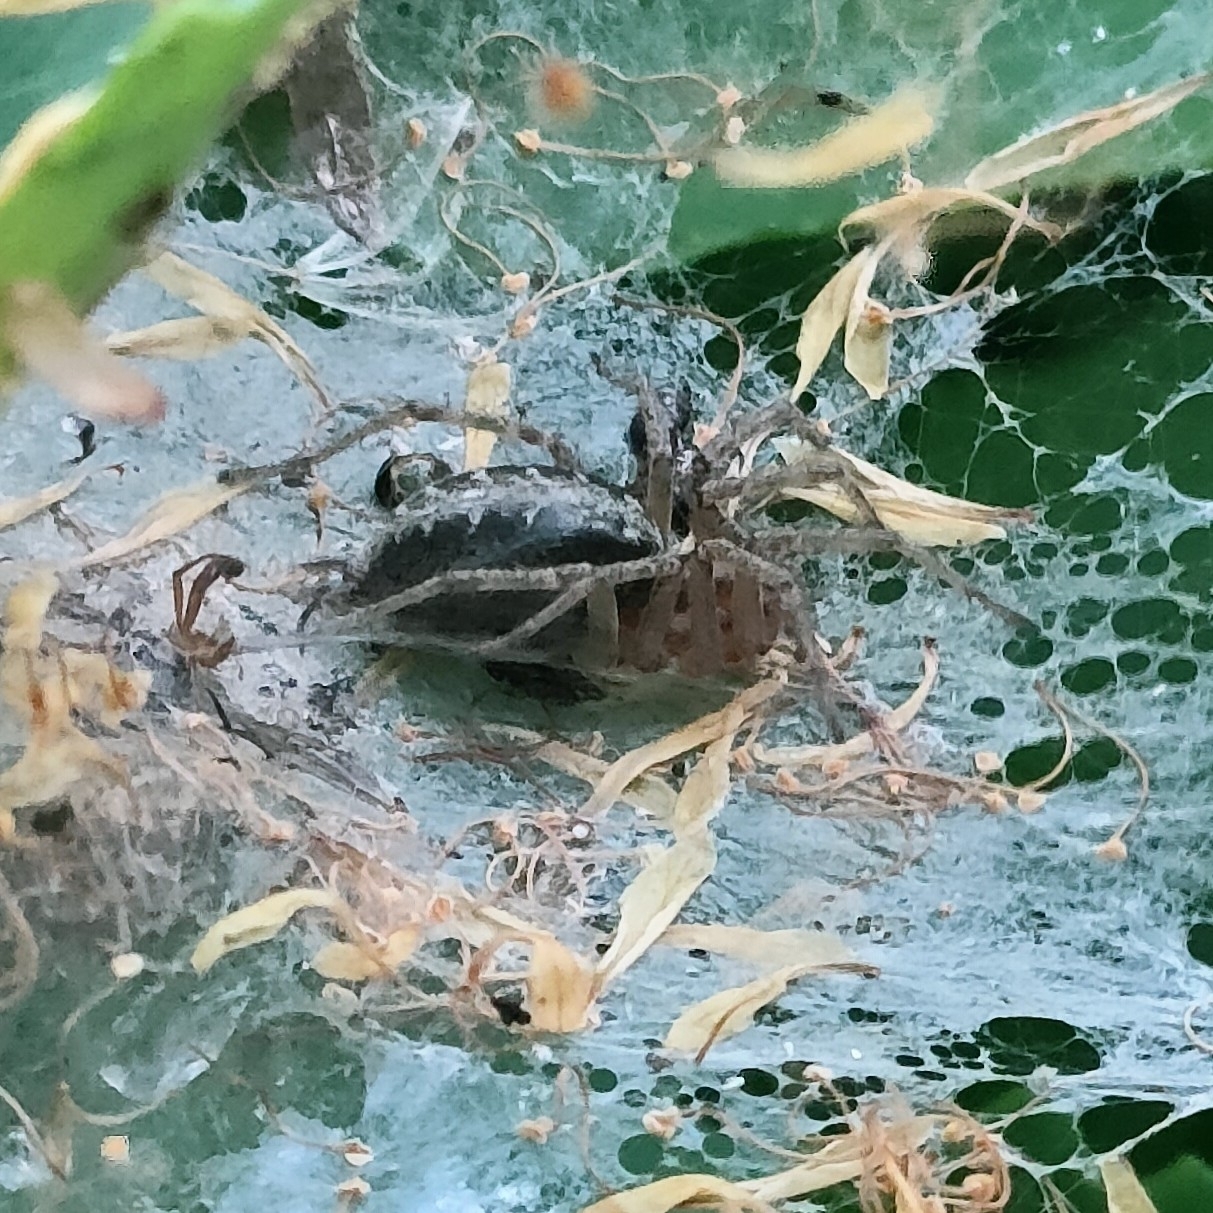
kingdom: Animalia
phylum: Arthropoda
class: Arachnida
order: Araneae
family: Agelenidae
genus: Agelena
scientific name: Agelena labyrinthica
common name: Labyrinth spider
